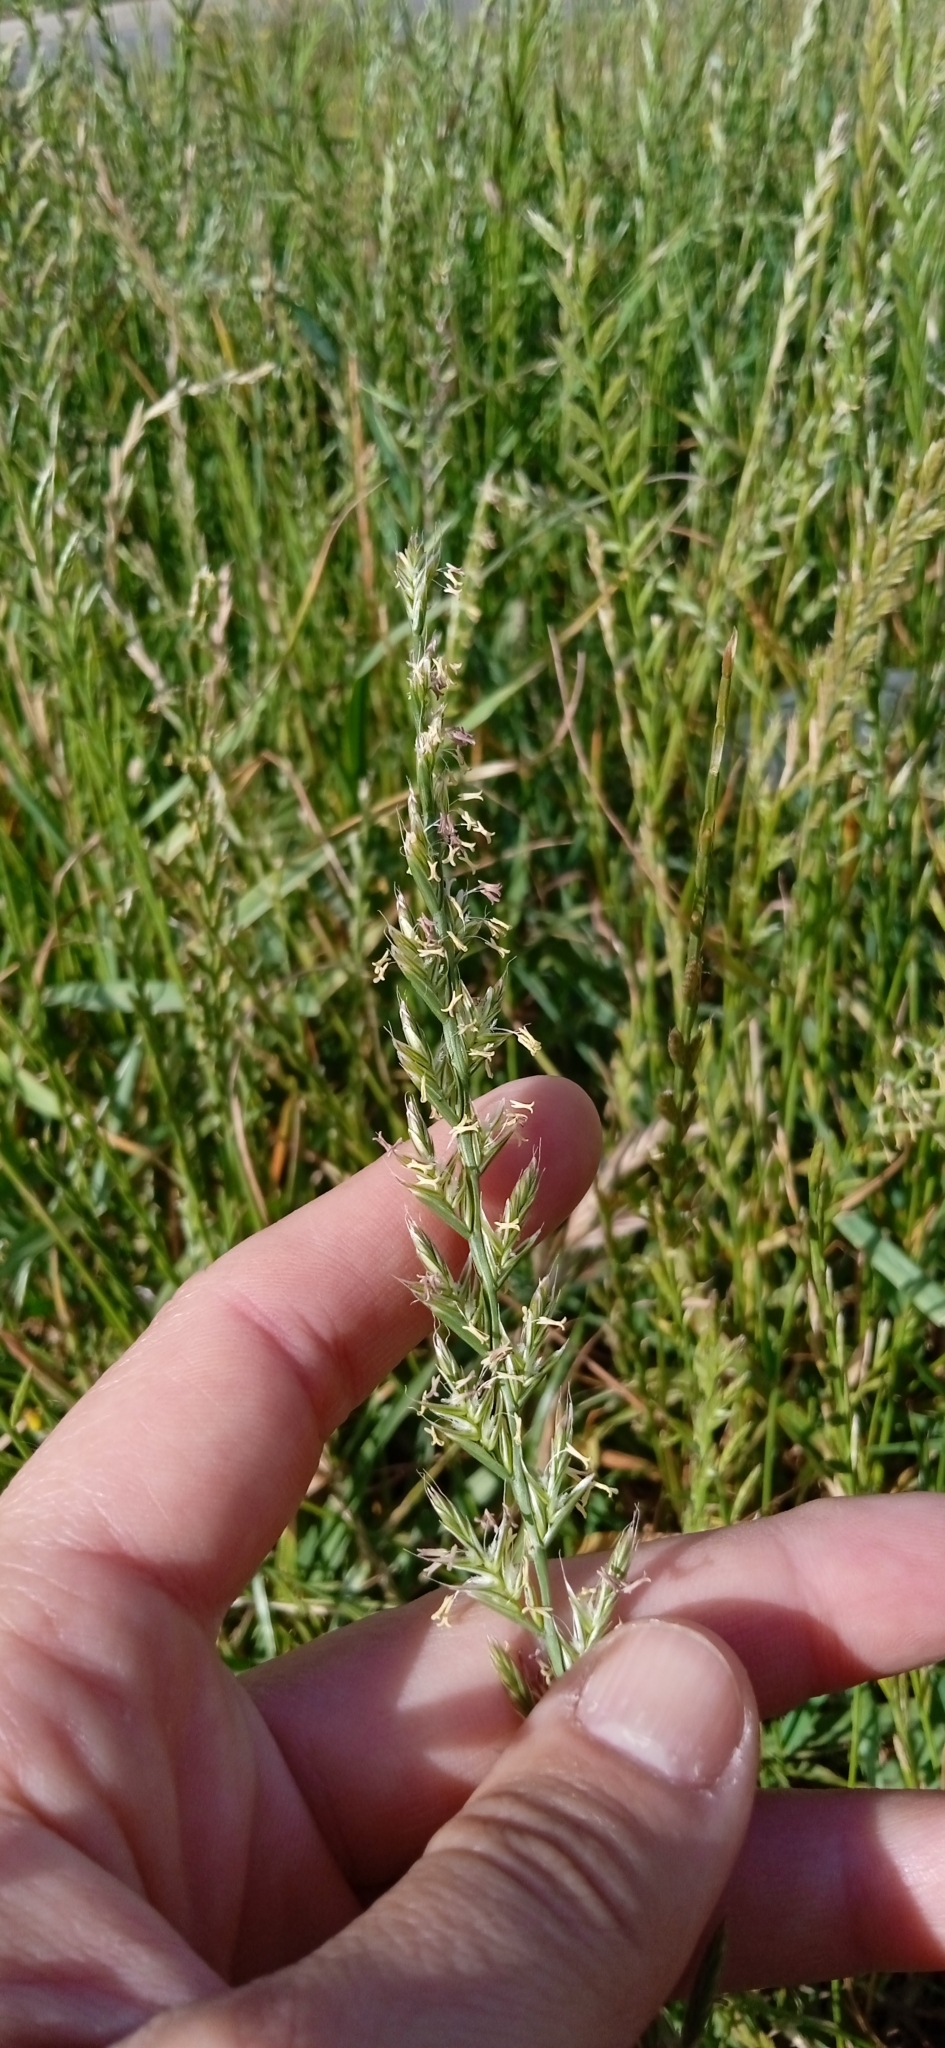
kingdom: Plantae
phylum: Tracheophyta
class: Liliopsida
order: Poales
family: Poaceae
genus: Lolium
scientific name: Lolium multiflorum
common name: Annual ryegrass
